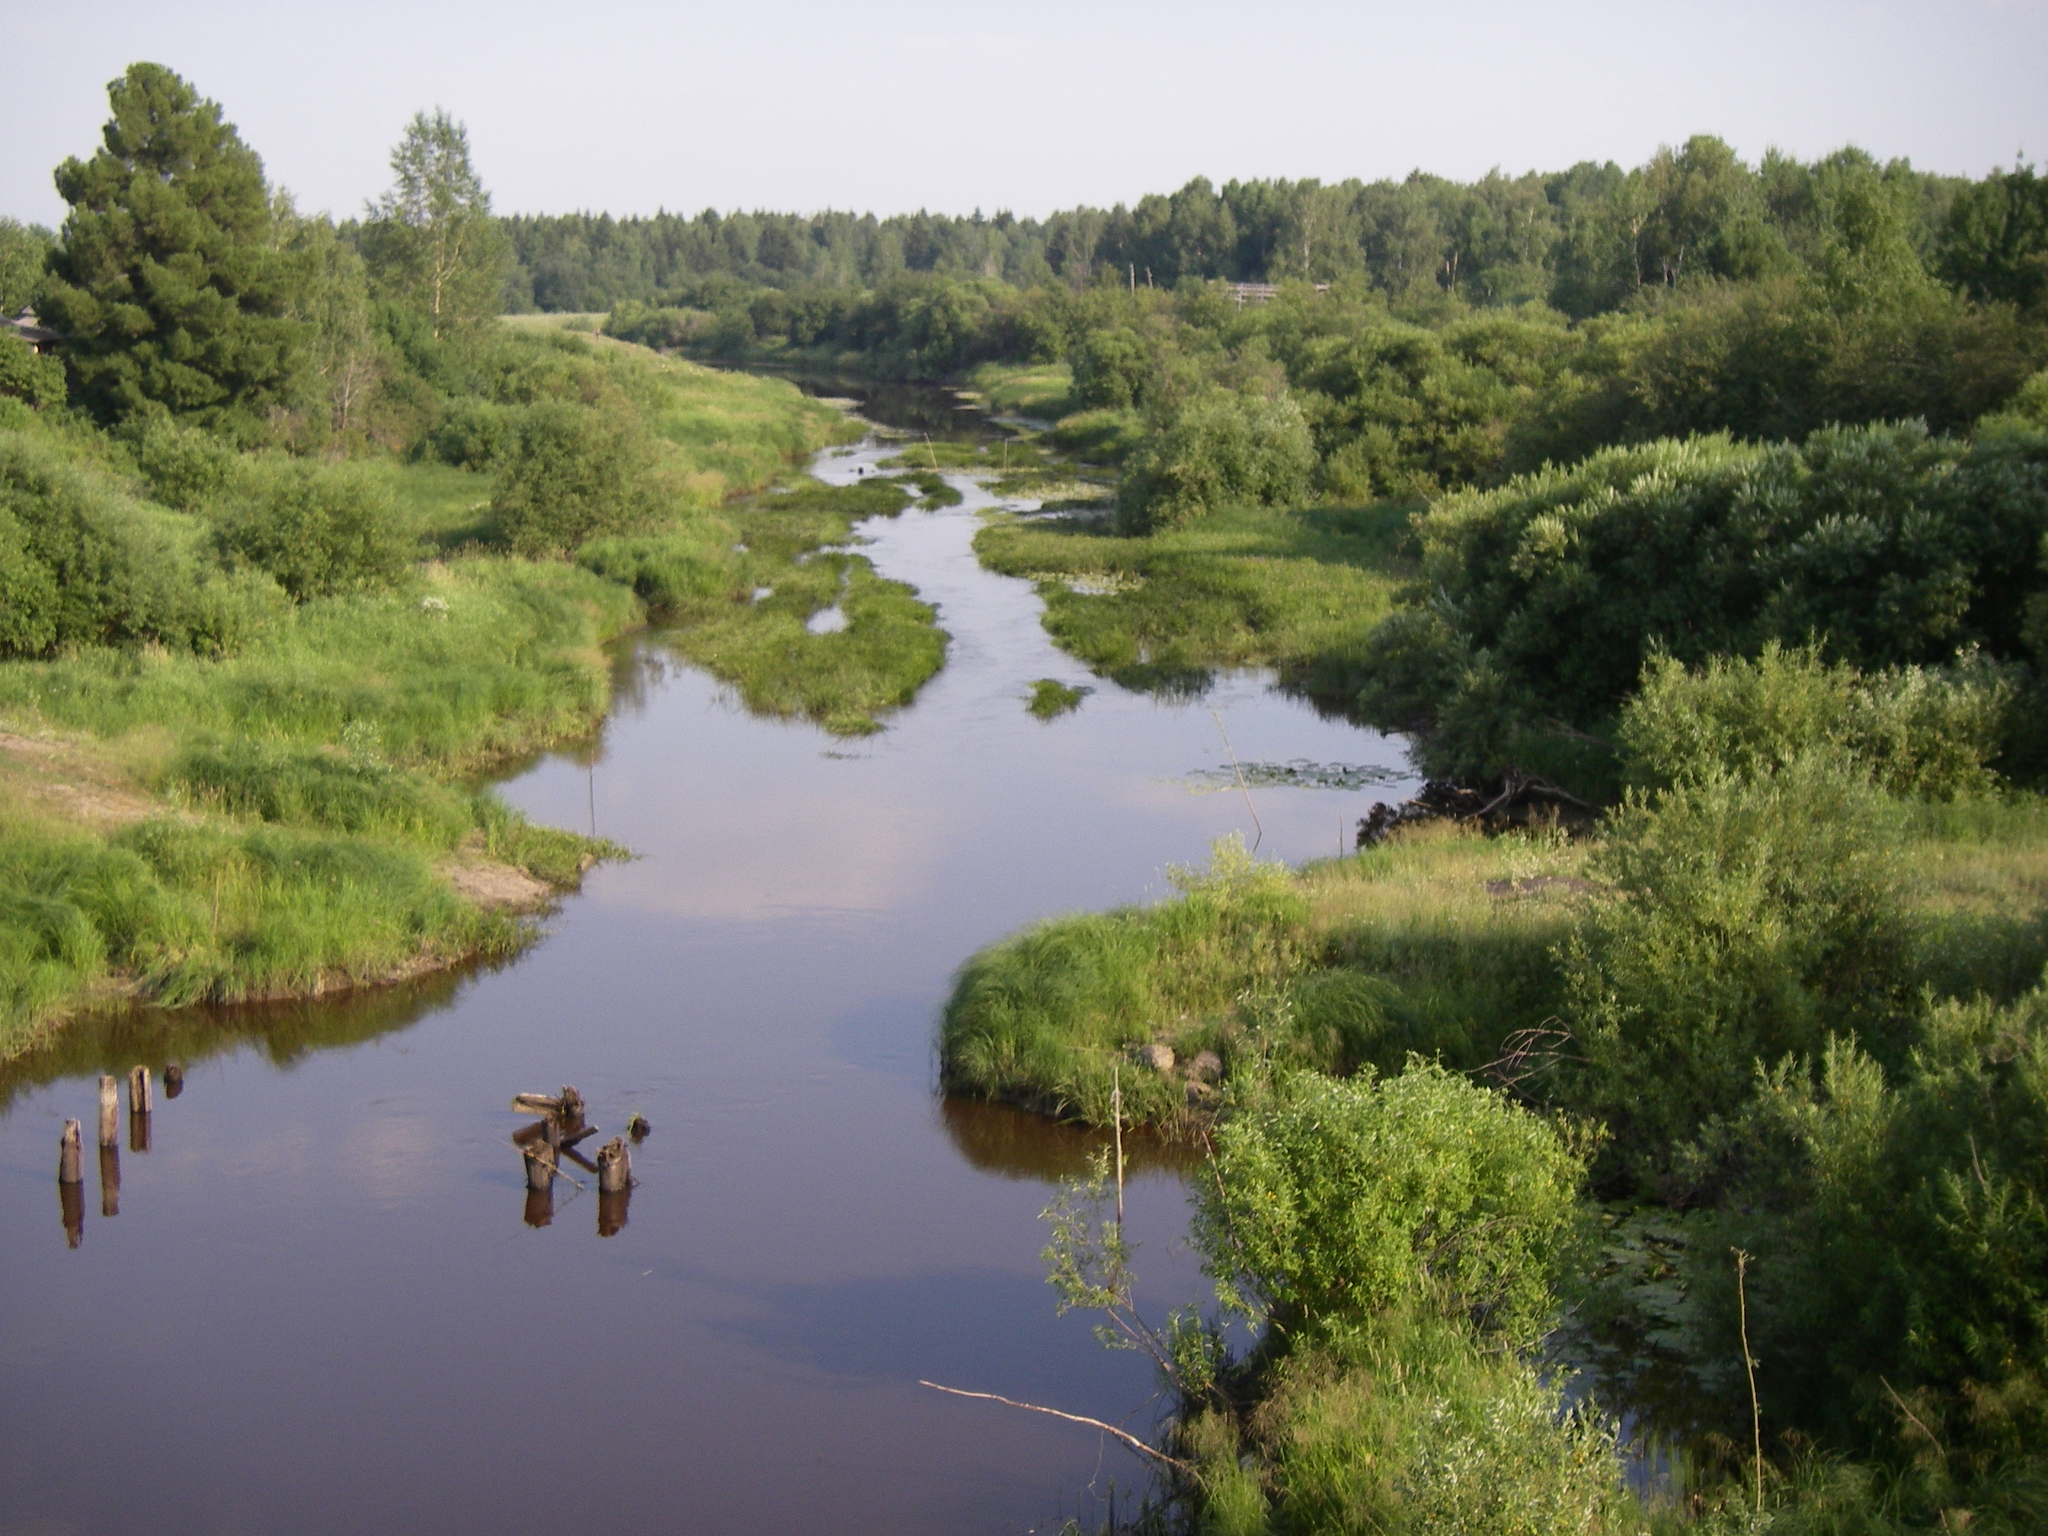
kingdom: Plantae
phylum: Tracheophyta
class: Pinopsida
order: Pinales
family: Pinaceae
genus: Pinus
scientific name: Pinus sibirica
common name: Siberian pine
